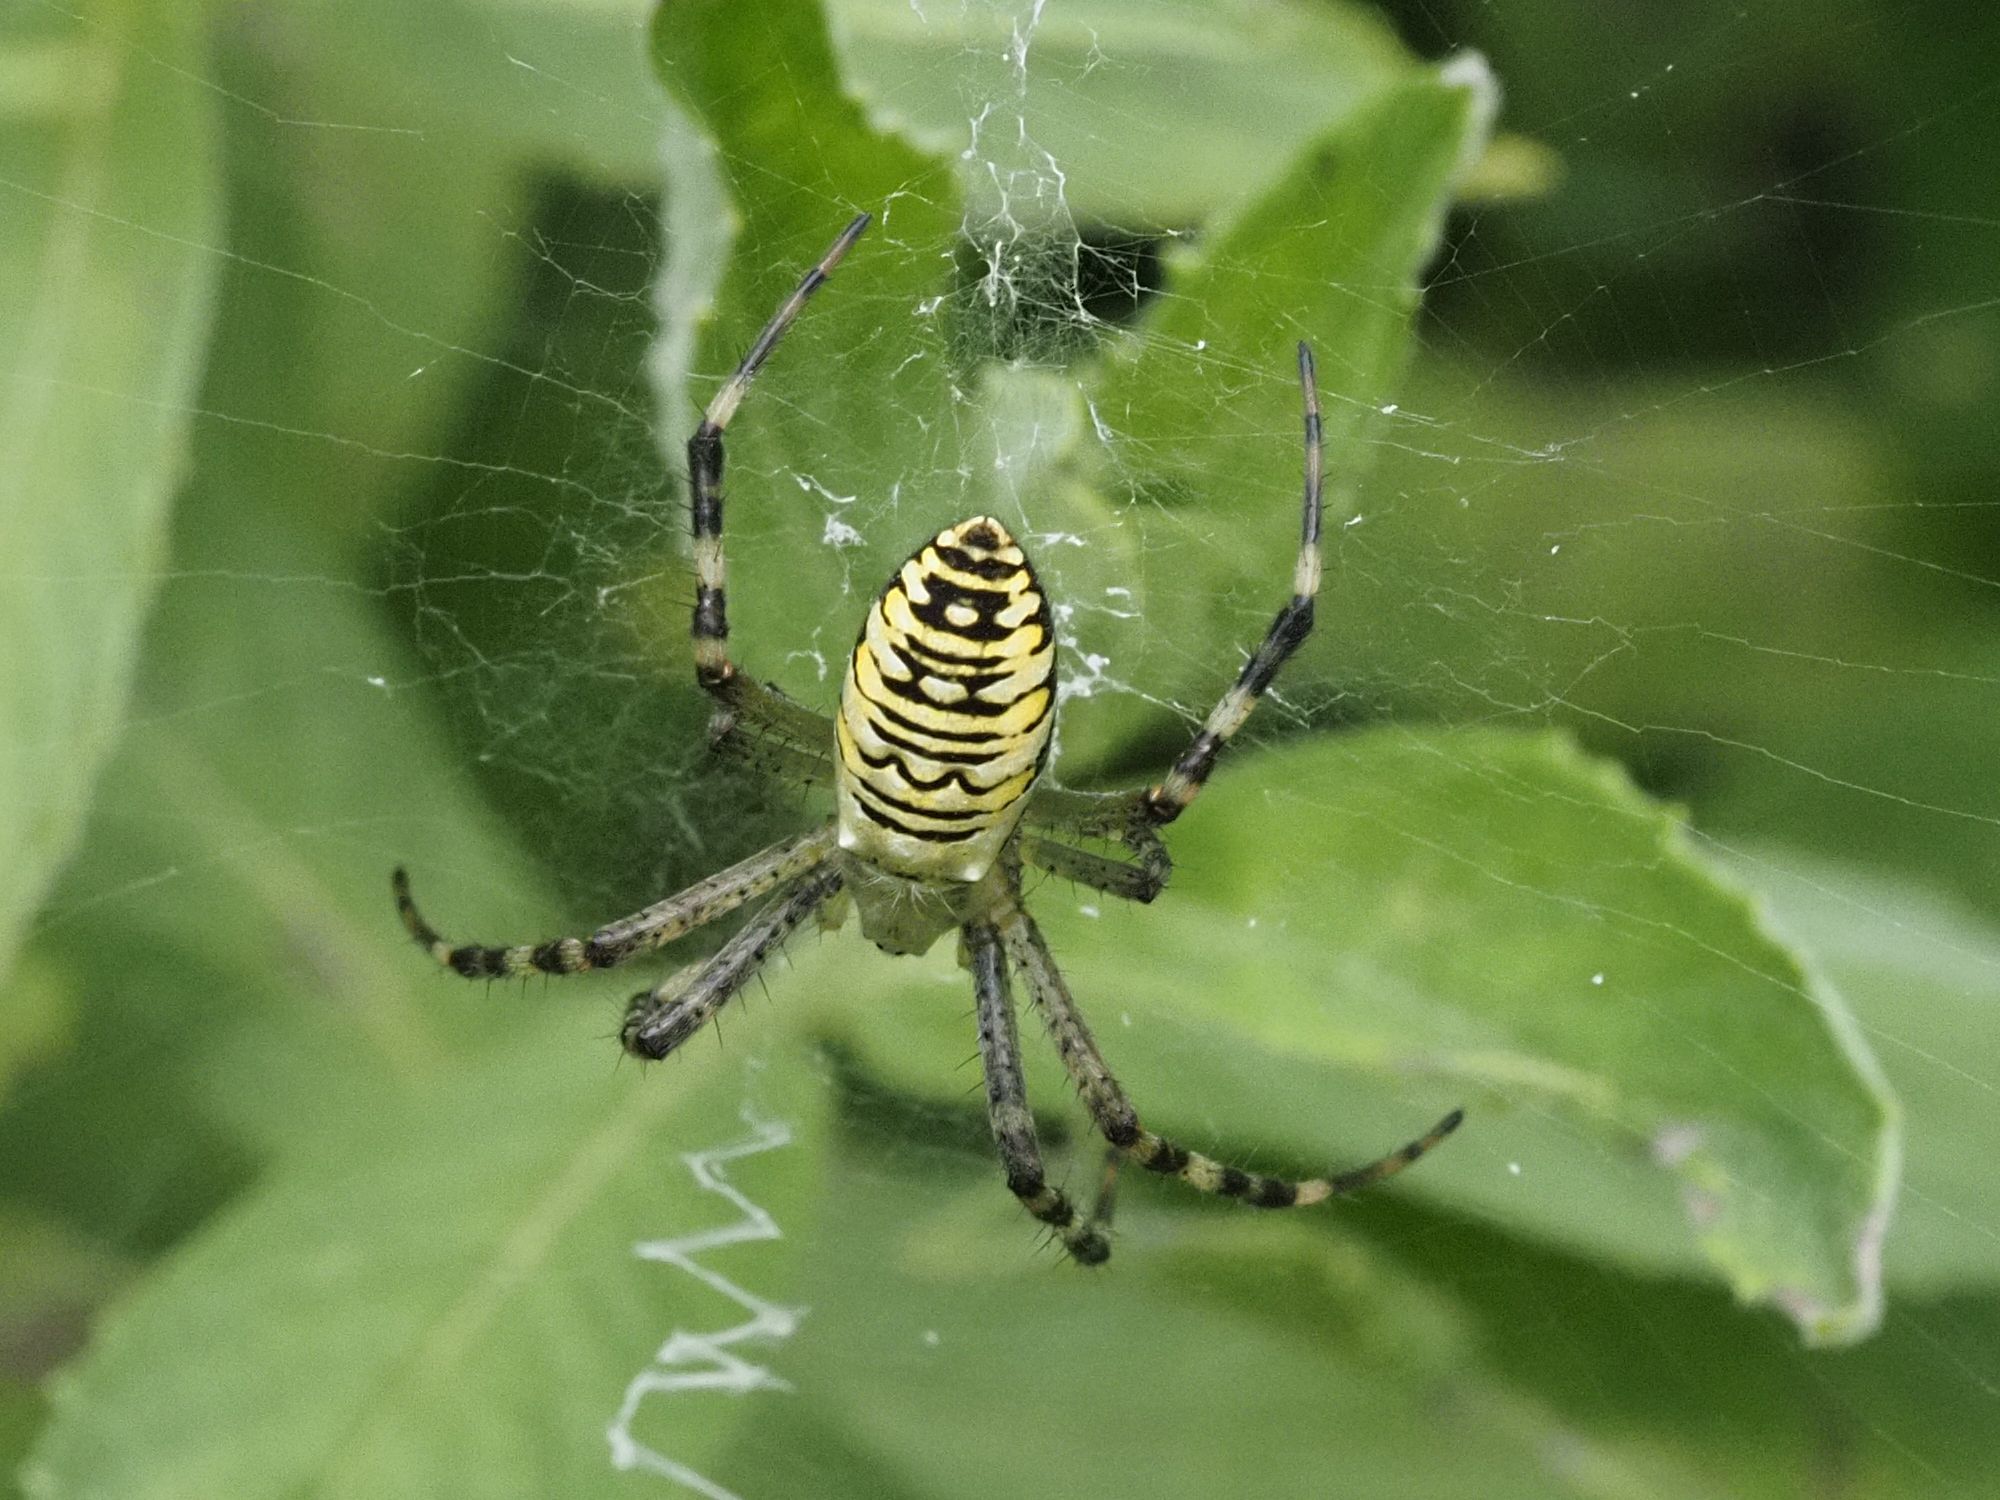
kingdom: Animalia
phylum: Arthropoda
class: Arachnida
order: Araneae
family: Araneidae
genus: Argiope
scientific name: Argiope bruennichi
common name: Wasp spider
